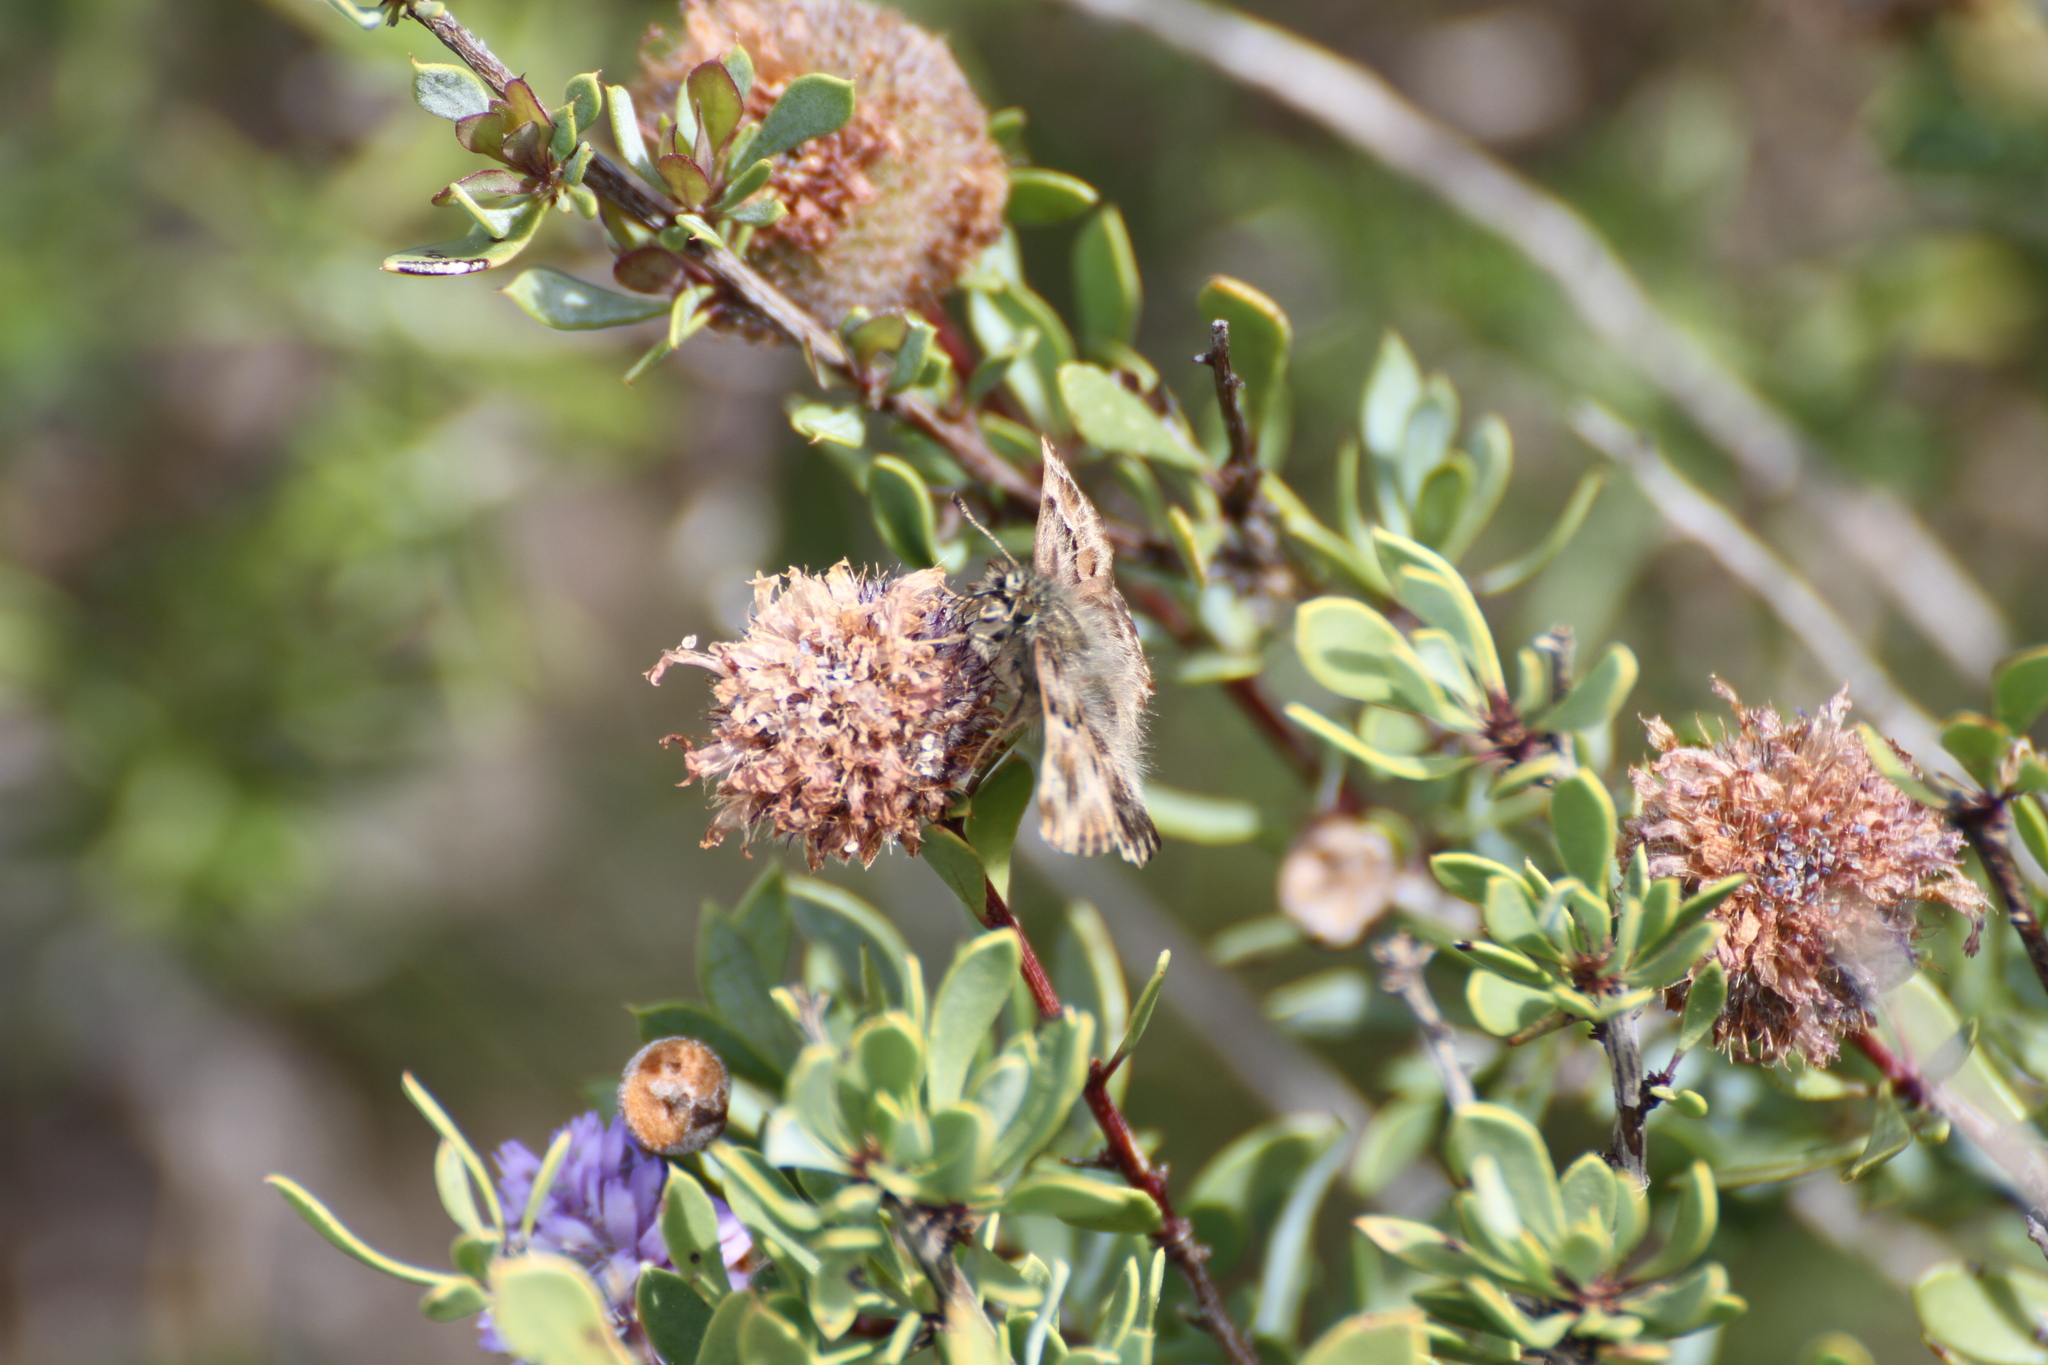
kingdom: Animalia
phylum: Arthropoda
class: Insecta
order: Lepidoptera
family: Hesperiidae
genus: Carcharodus
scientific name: Carcharodus alceae
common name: Mallow skipper
